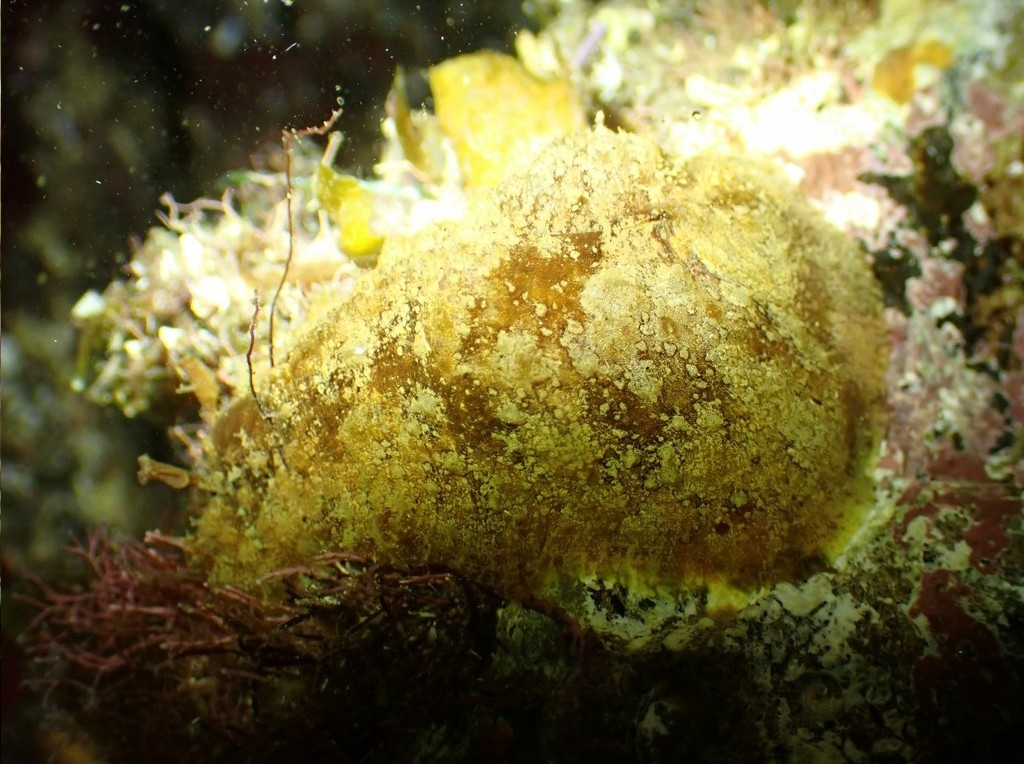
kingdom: Animalia
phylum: Mollusca
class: Gastropoda
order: Aplysiida
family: Aplysiidae
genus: Dolabrifera
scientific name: Dolabrifera edmundsi
